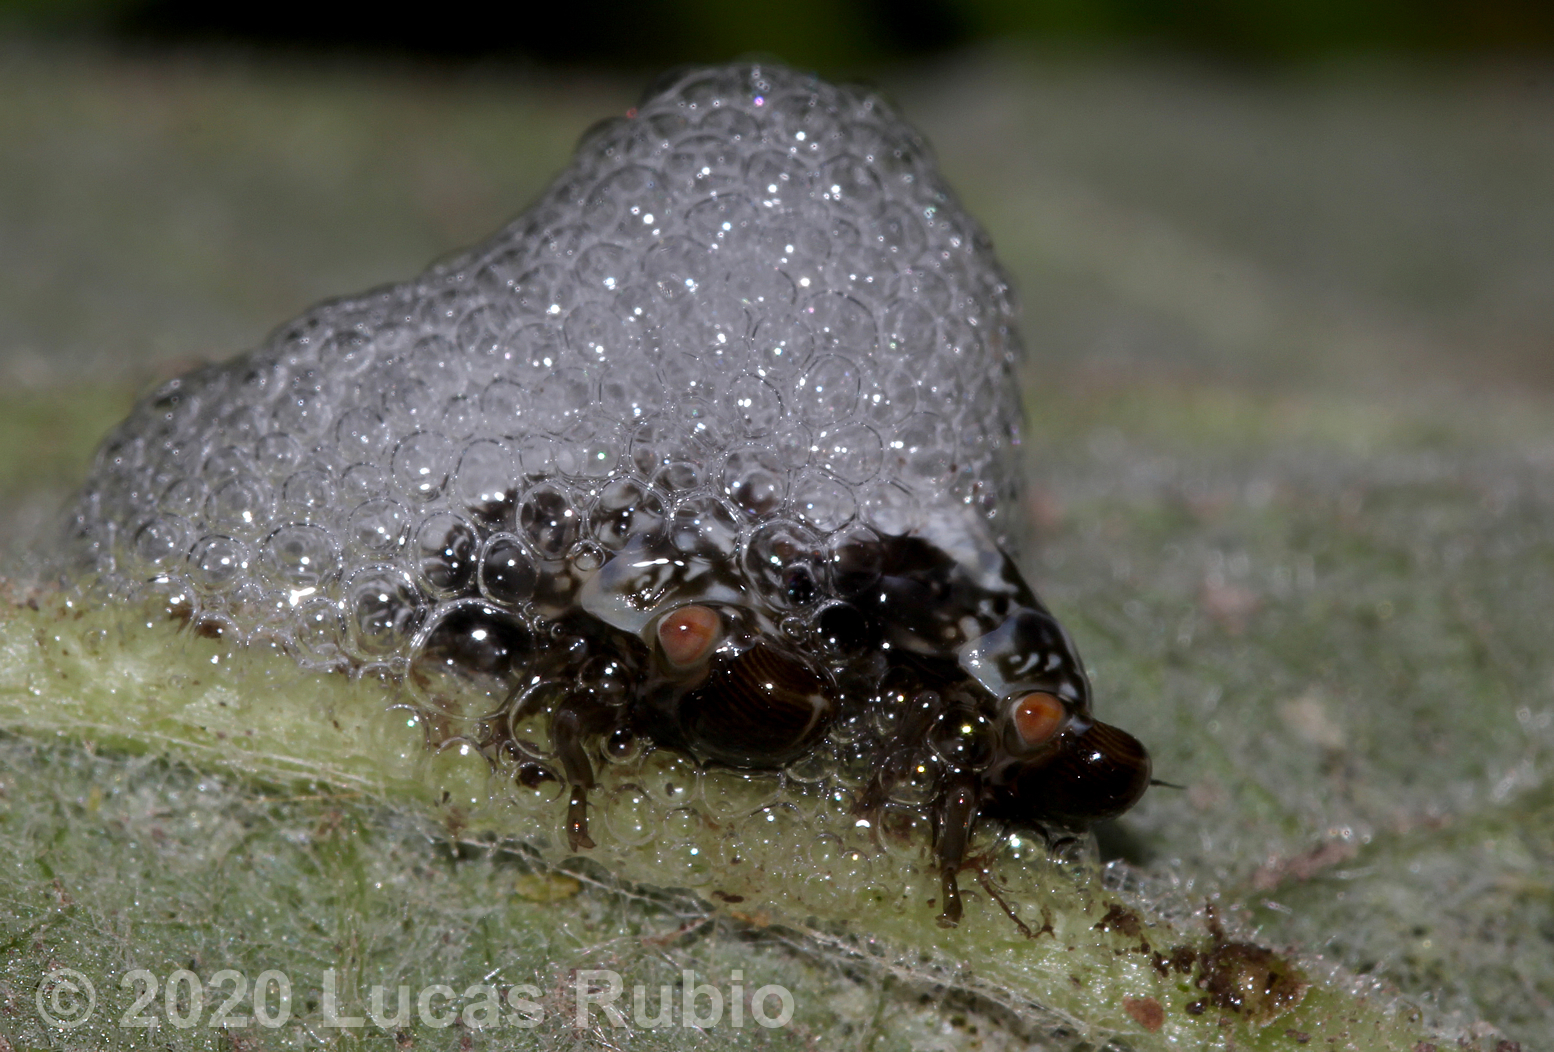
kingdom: Animalia
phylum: Arthropoda
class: Insecta
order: Hemiptera
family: Aphrophoridae
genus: Cephisus
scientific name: Cephisus siccifolius
